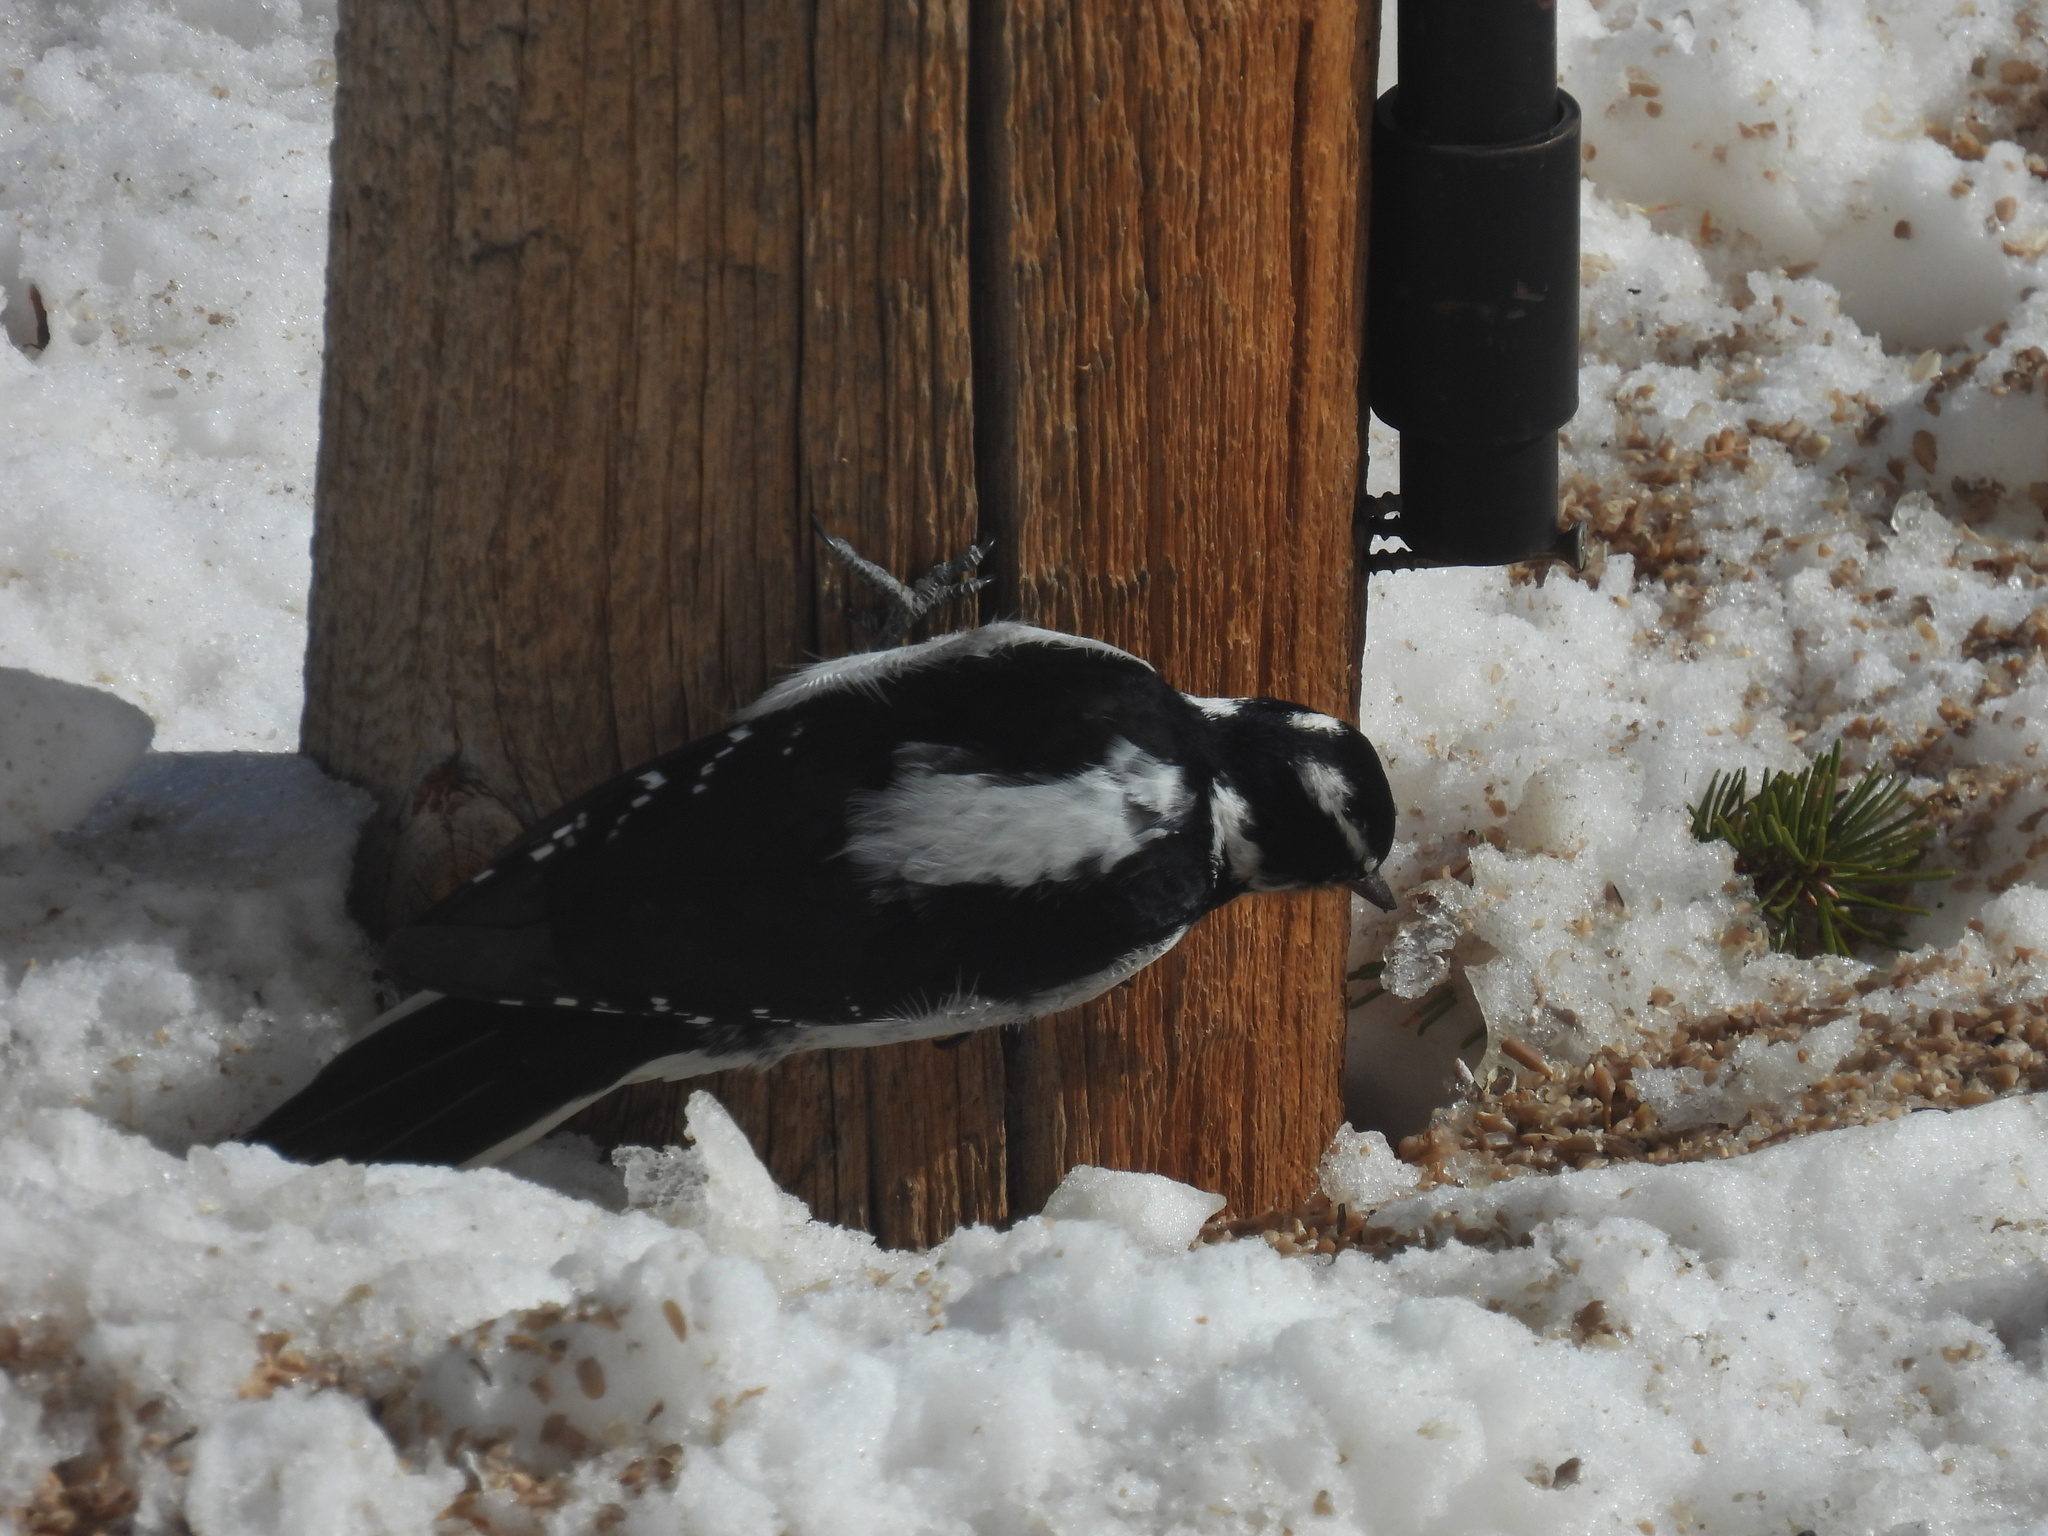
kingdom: Animalia
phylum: Chordata
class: Aves
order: Piciformes
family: Picidae
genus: Leuconotopicus
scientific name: Leuconotopicus villosus
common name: Hairy woodpecker
